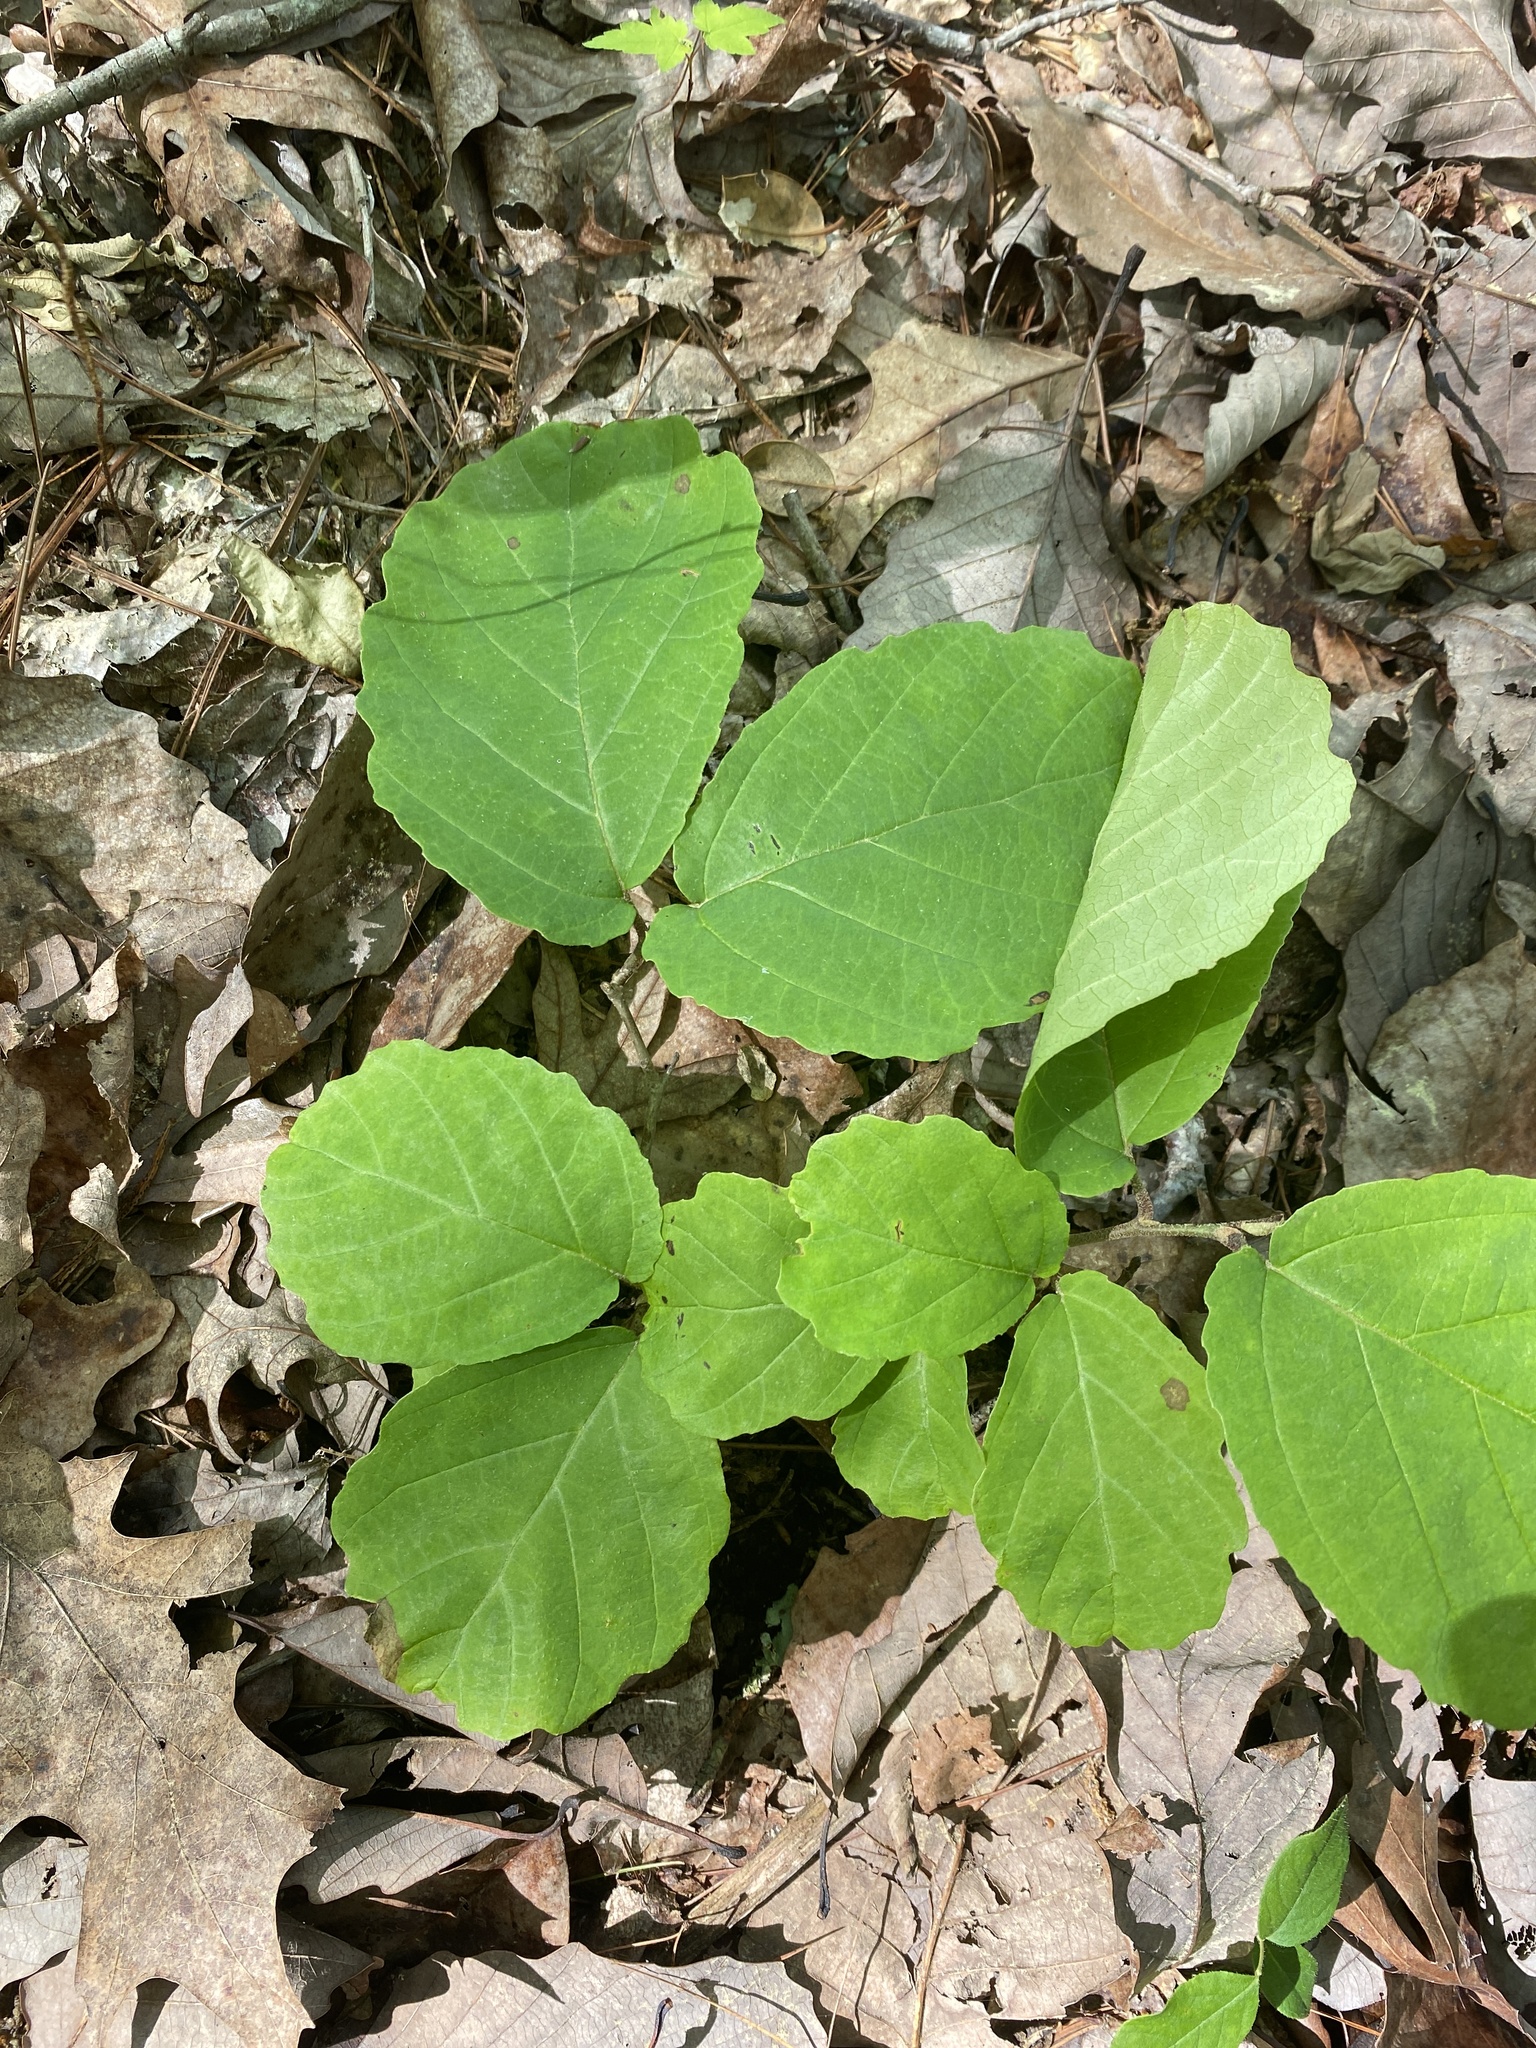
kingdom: Plantae
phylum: Tracheophyta
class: Magnoliopsida
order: Saxifragales
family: Hamamelidaceae
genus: Hamamelis
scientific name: Hamamelis virginiana
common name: Witch-hazel
